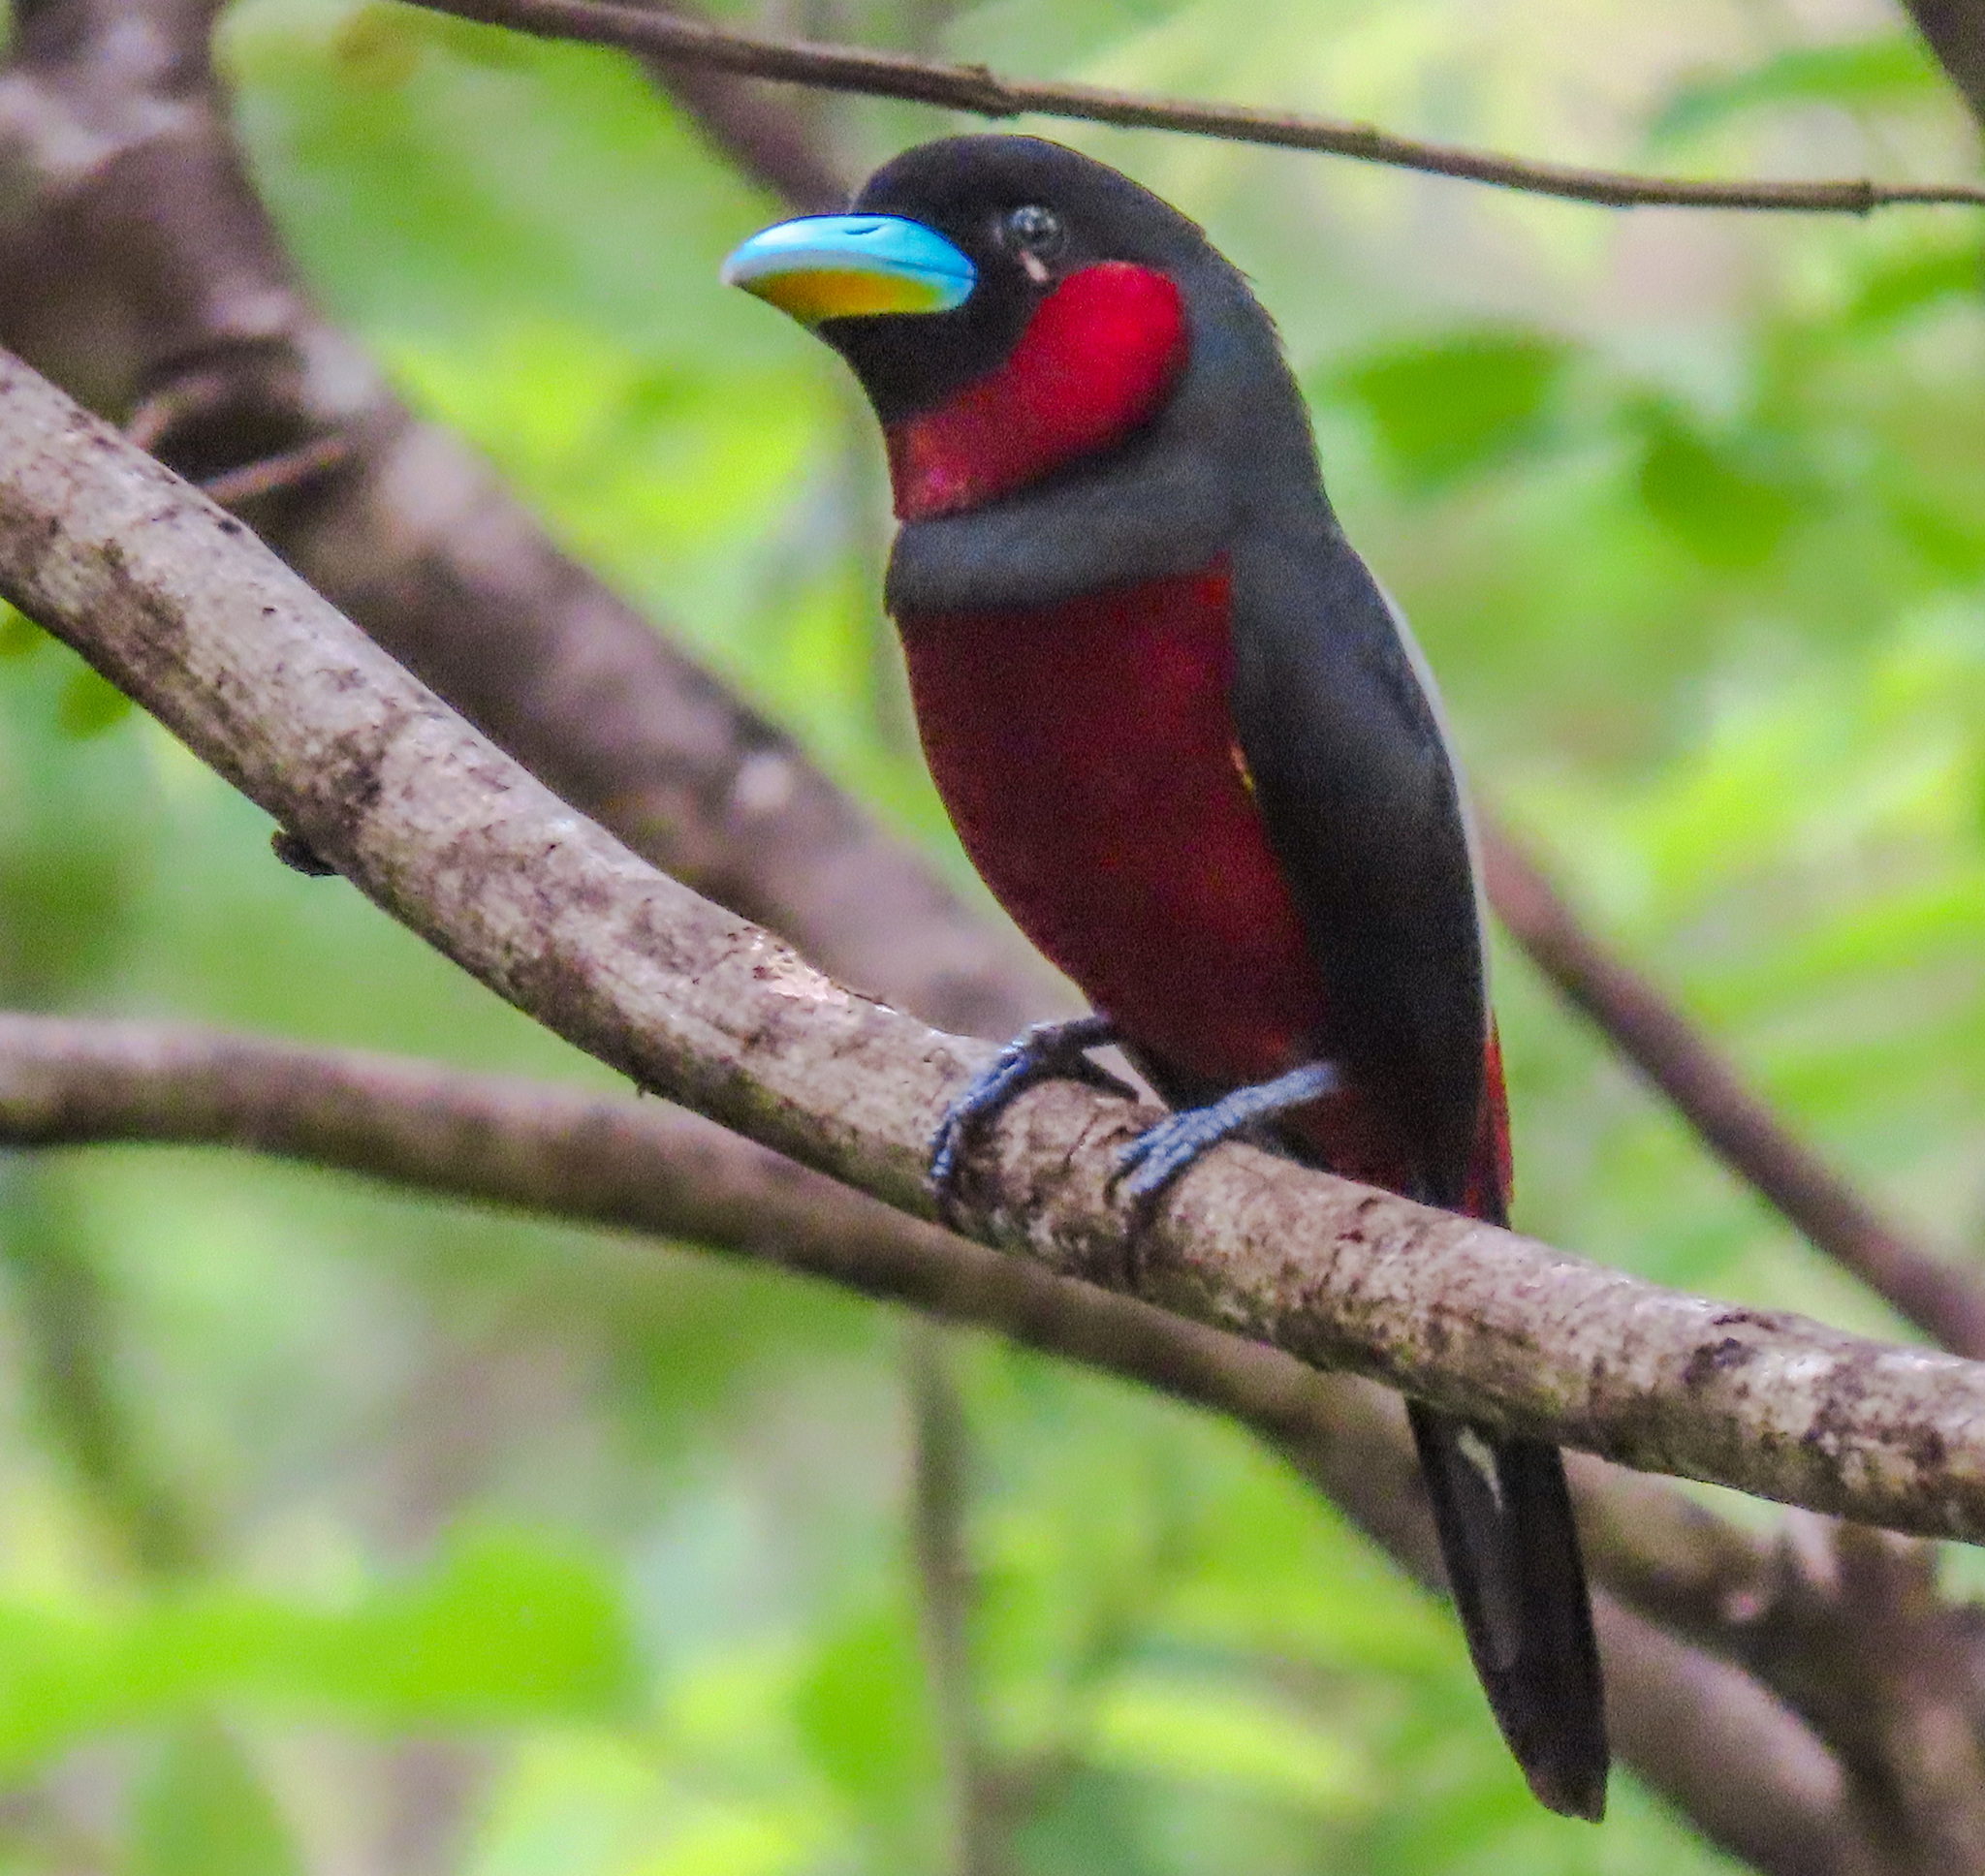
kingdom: Animalia
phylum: Chordata
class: Aves
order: Passeriformes
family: Eurylaimidae
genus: Cymbirhynchus
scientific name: Cymbirhynchus macrorhynchos
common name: Black-and-red broadbill
